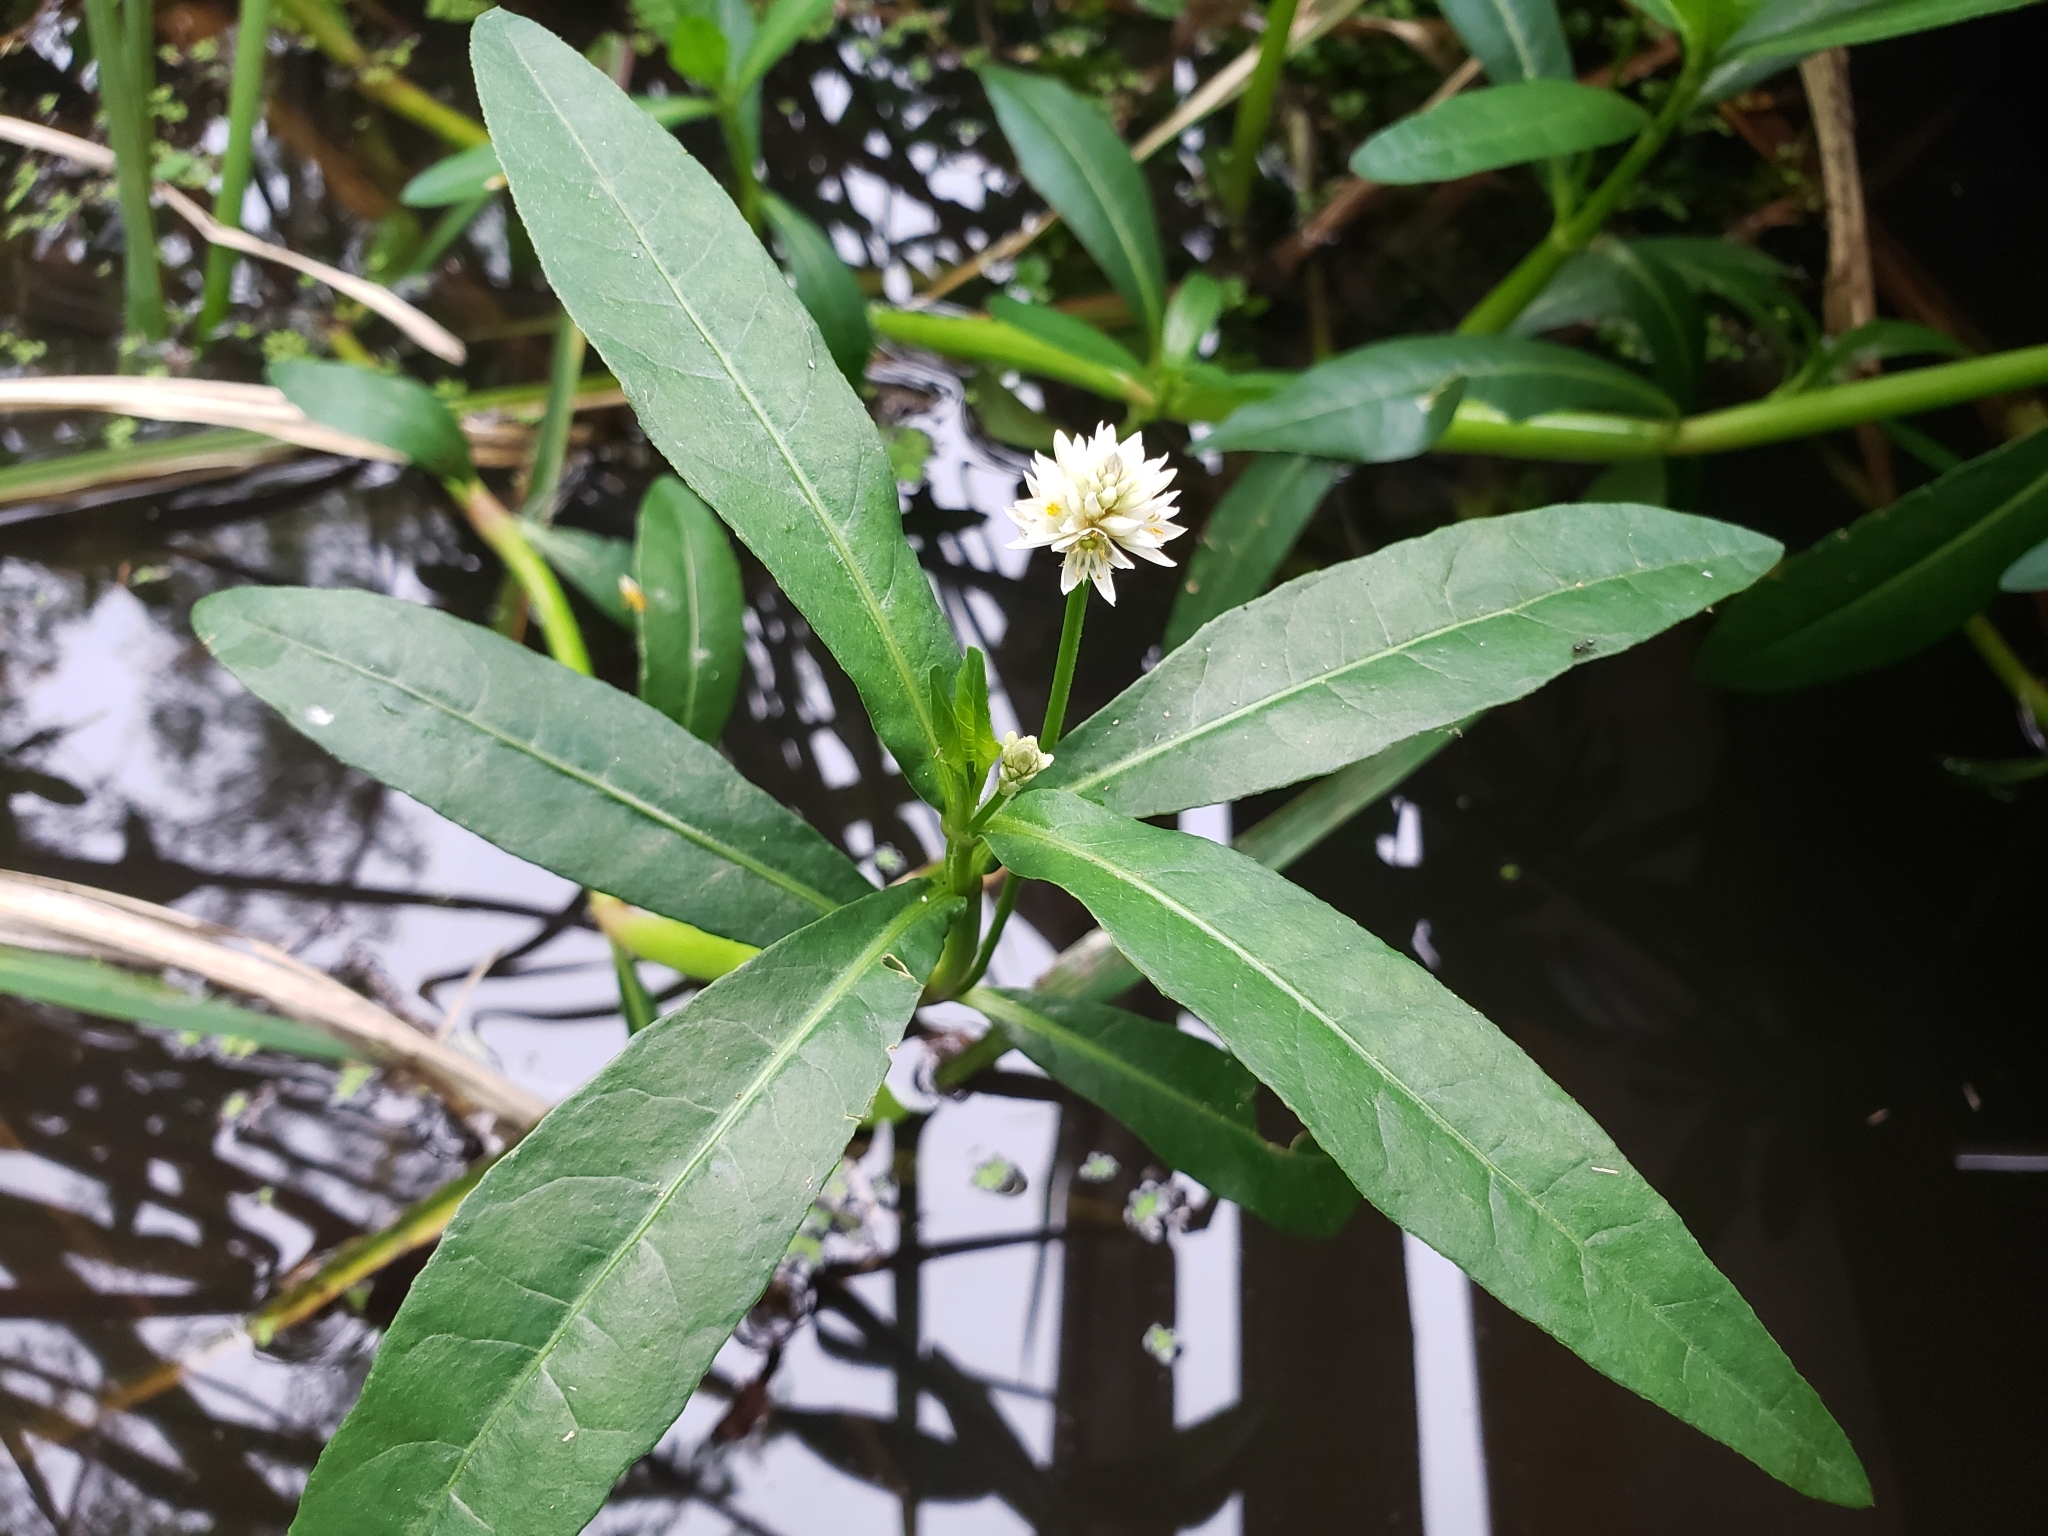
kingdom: Plantae
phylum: Tracheophyta
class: Magnoliopsida
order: Caryophyllales
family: Amaranthaceae
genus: Alternanthera
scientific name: Alternanthera philoxeroides
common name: Alligatorweed
